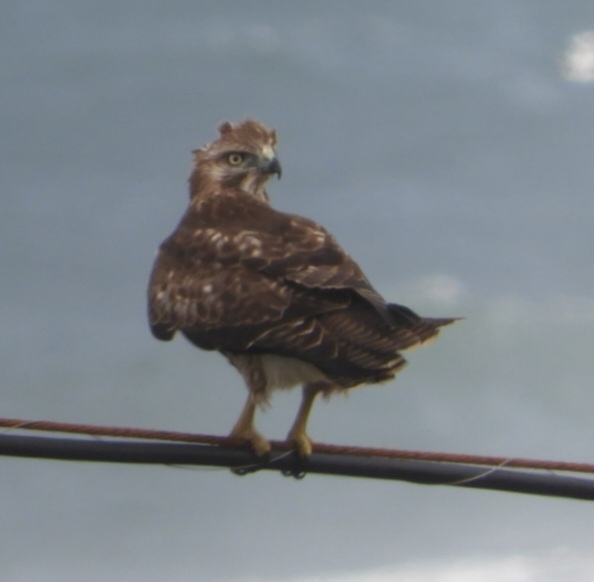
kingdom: Animalia
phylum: Chordata
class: Aves
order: Accipitriformes
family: Accipitridae
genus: Buteo
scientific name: Buteo jamaicensis
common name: Red-tailed hawk
